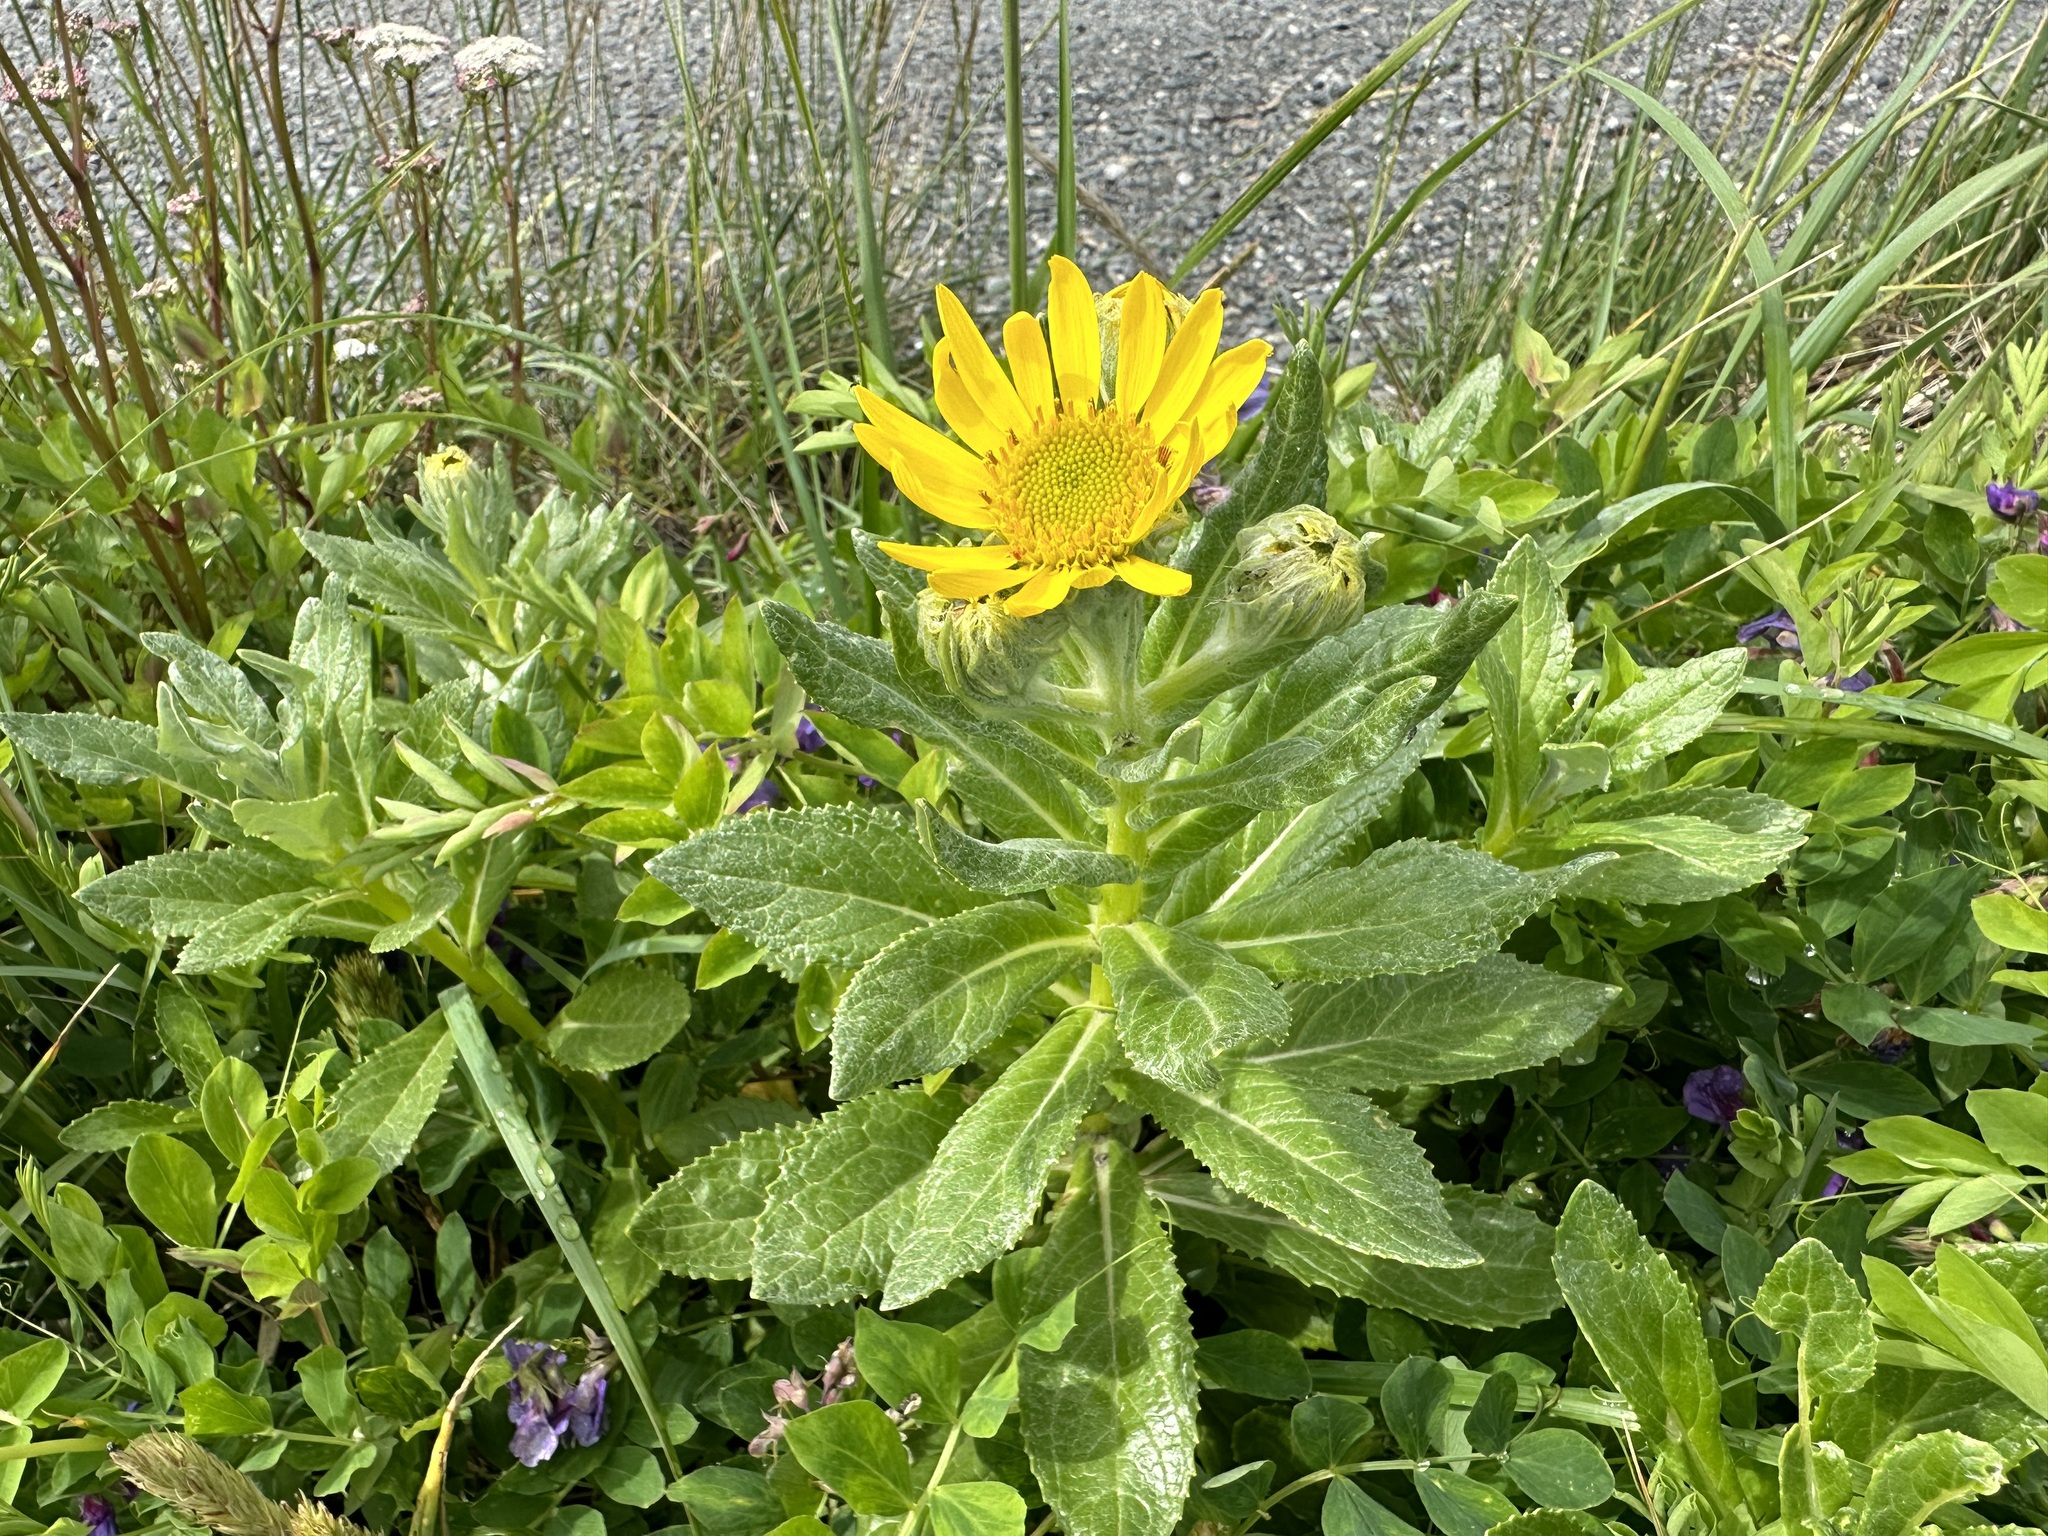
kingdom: Plantae
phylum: Tracheophyta
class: Magnoliopsida
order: Asterales
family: Asteraceae
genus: Jacobaea
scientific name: Jacobaea pseudoarnica
